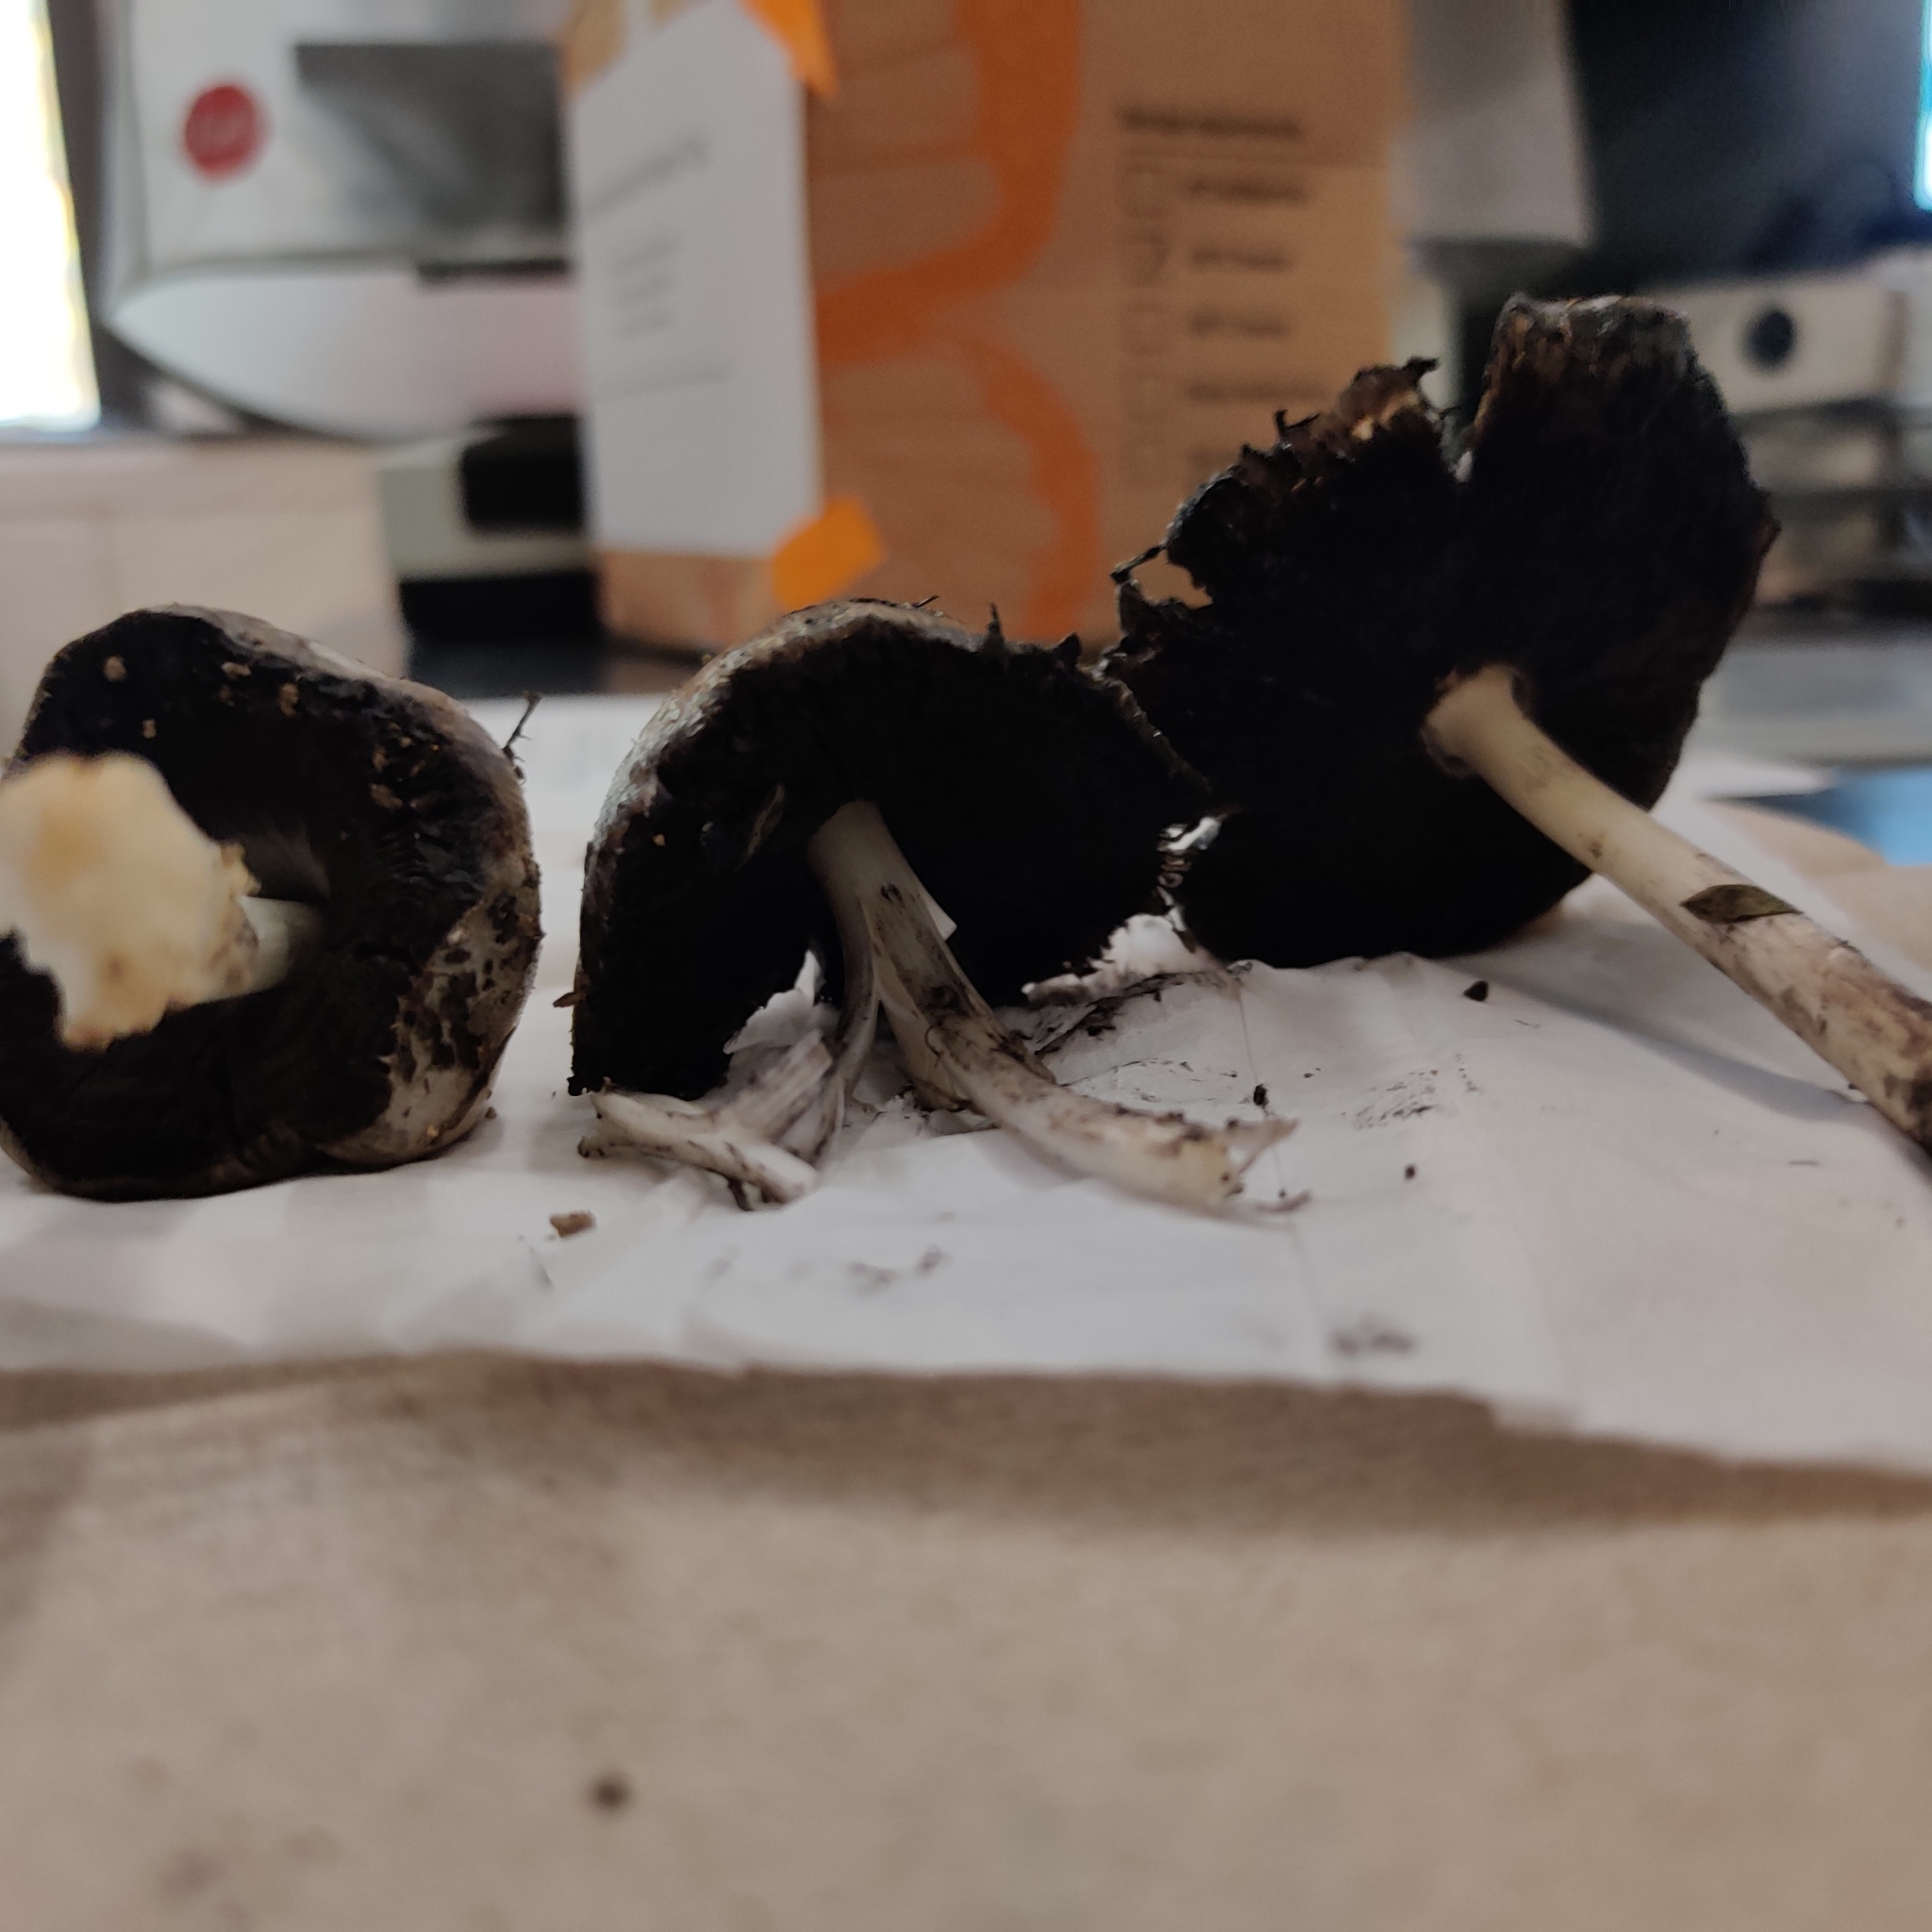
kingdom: Fungi
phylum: Basidiomycota
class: Agaricomycetes
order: Agaricales
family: Psathyrellaceae
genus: Coprinopsis
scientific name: Coprinopsis atramentaria
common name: Common ink-cap
